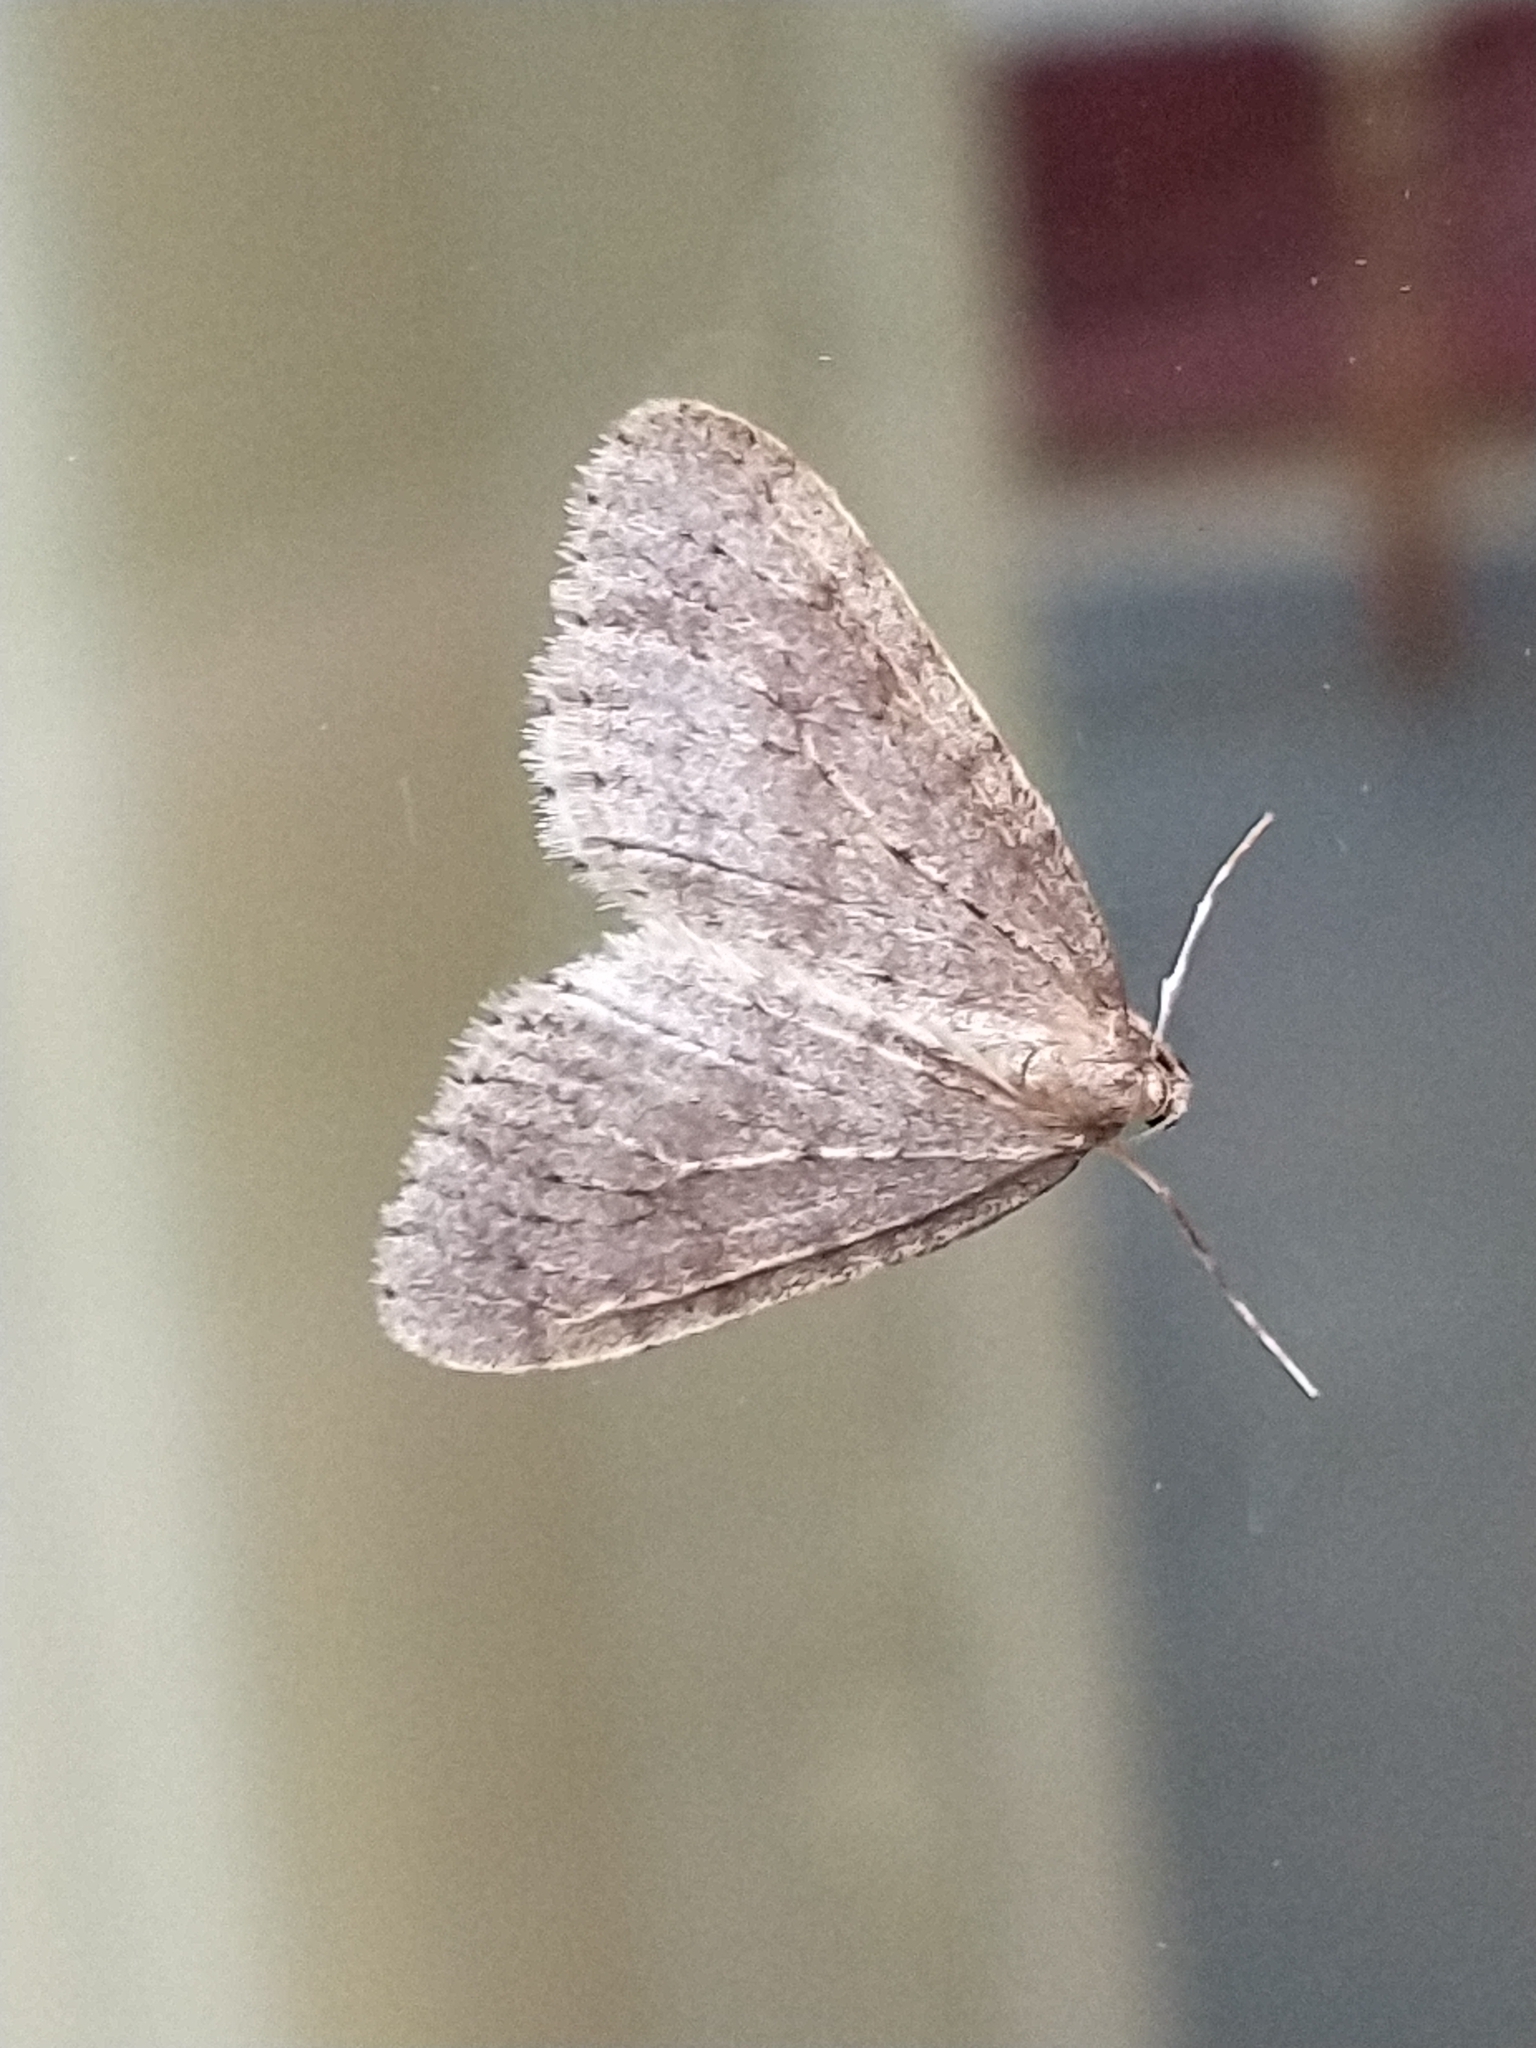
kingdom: Animalia
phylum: Arthropoda
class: Insecta
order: Lepidoptera
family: Geometridae
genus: Operophtera
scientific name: Operophtera brumata
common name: Winter moth
